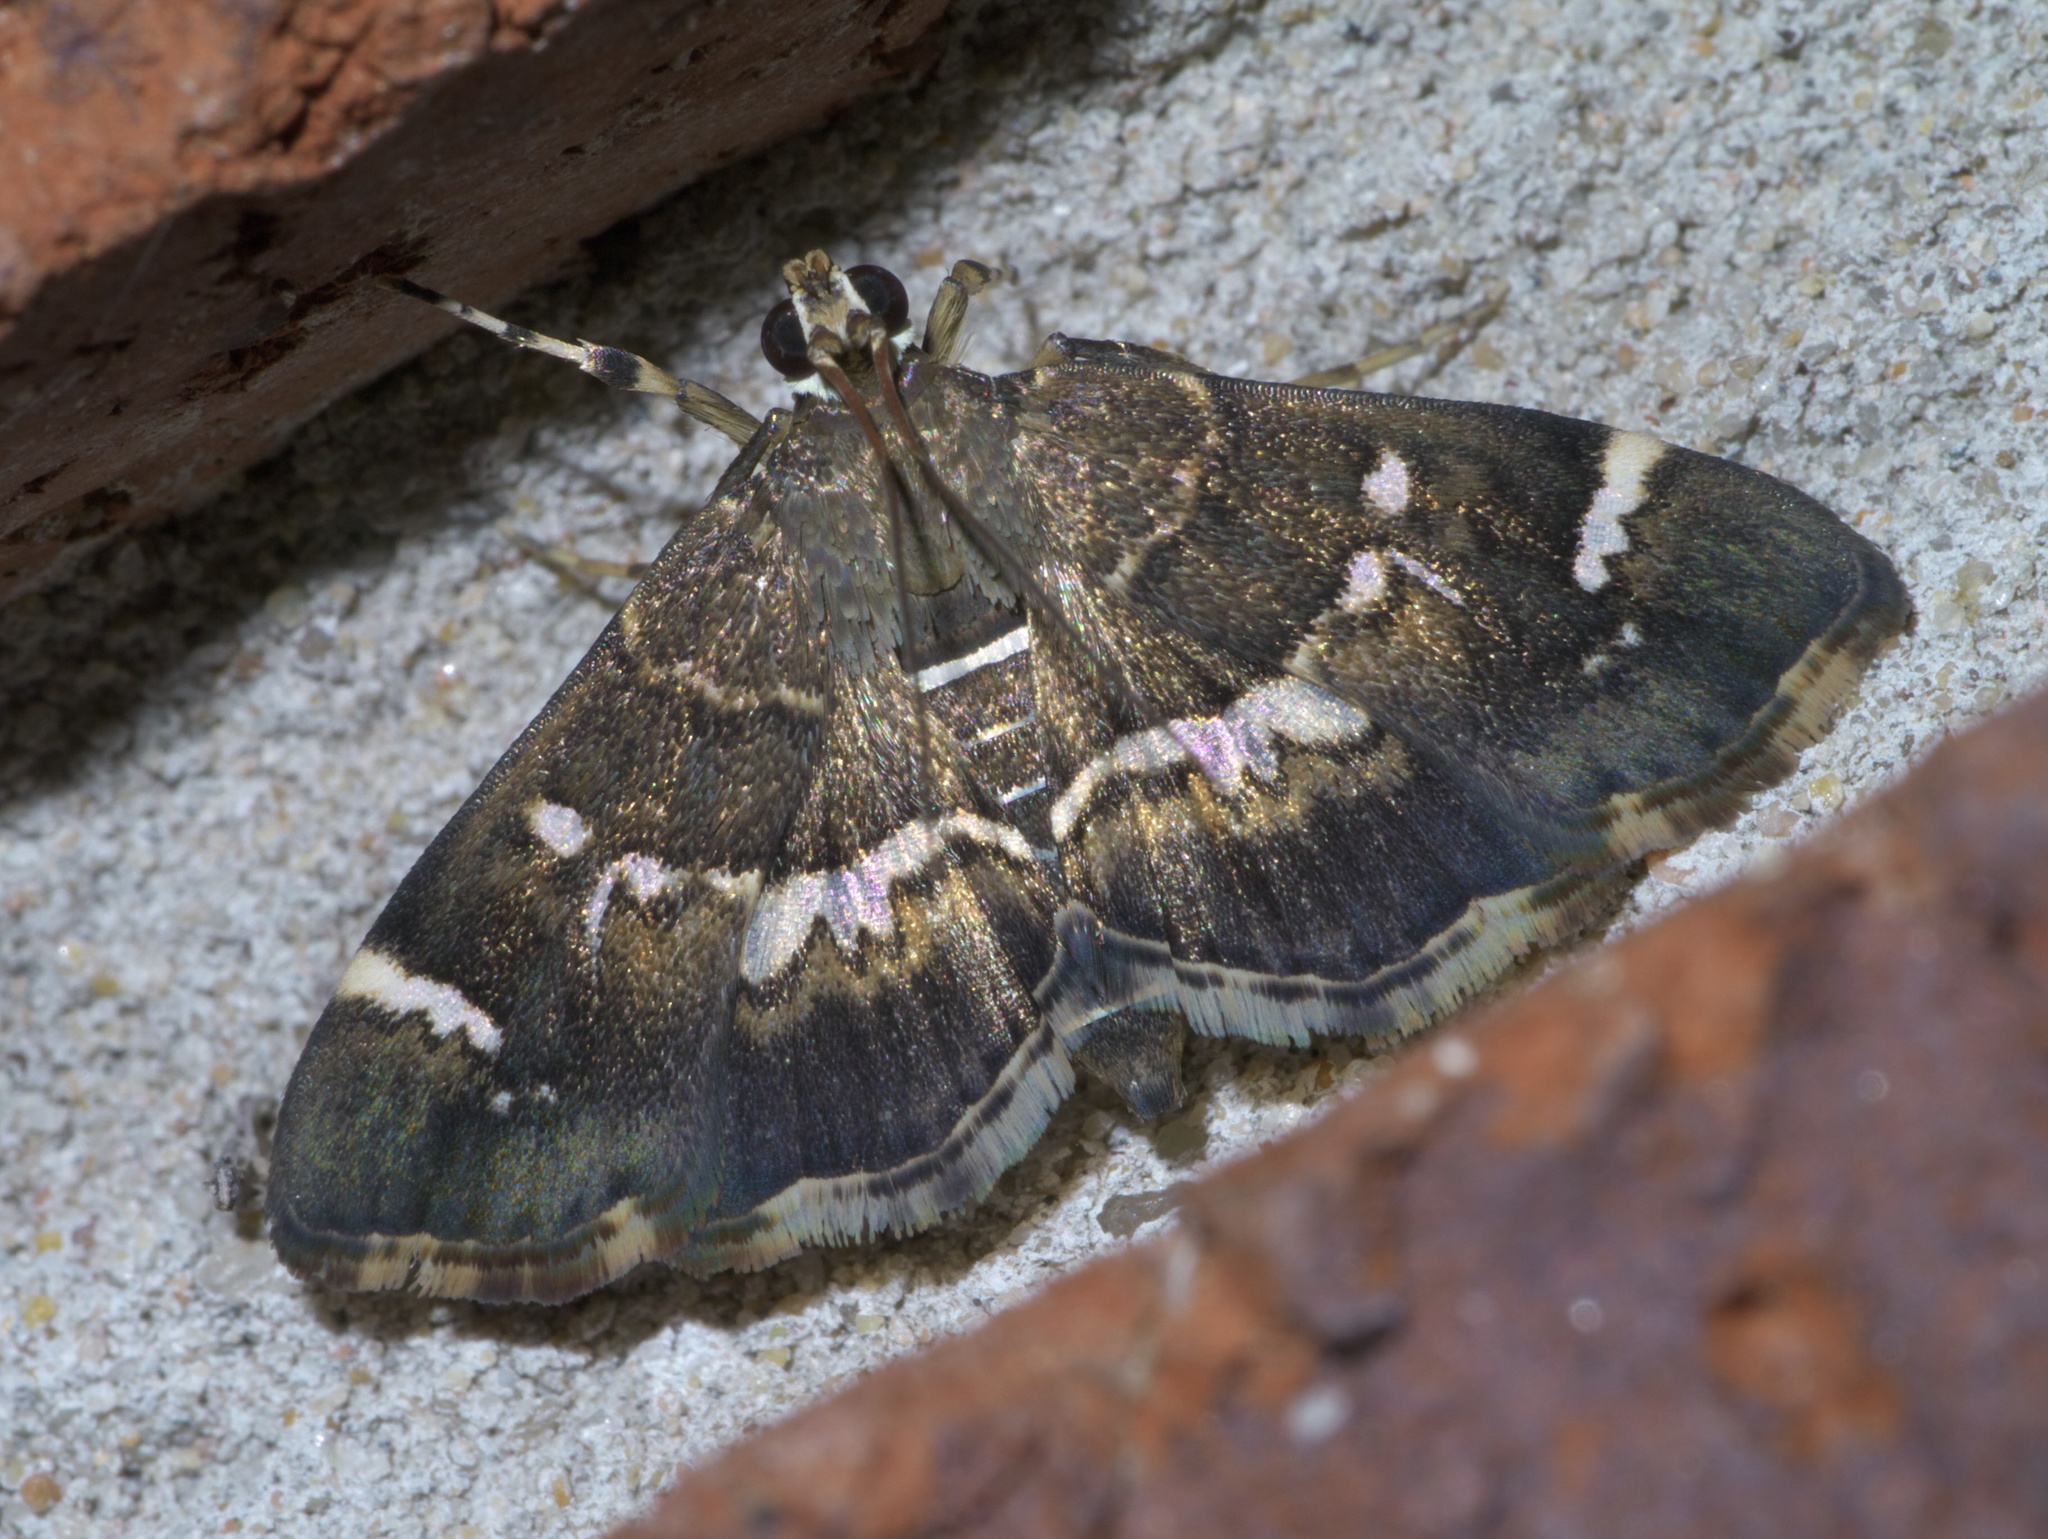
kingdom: Animalia
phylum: Arthropoda
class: Insecta
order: Lepidoptera
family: Crambidae
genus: Hymenia
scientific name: Hymenia perspectalis
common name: Spotted beet webworm
